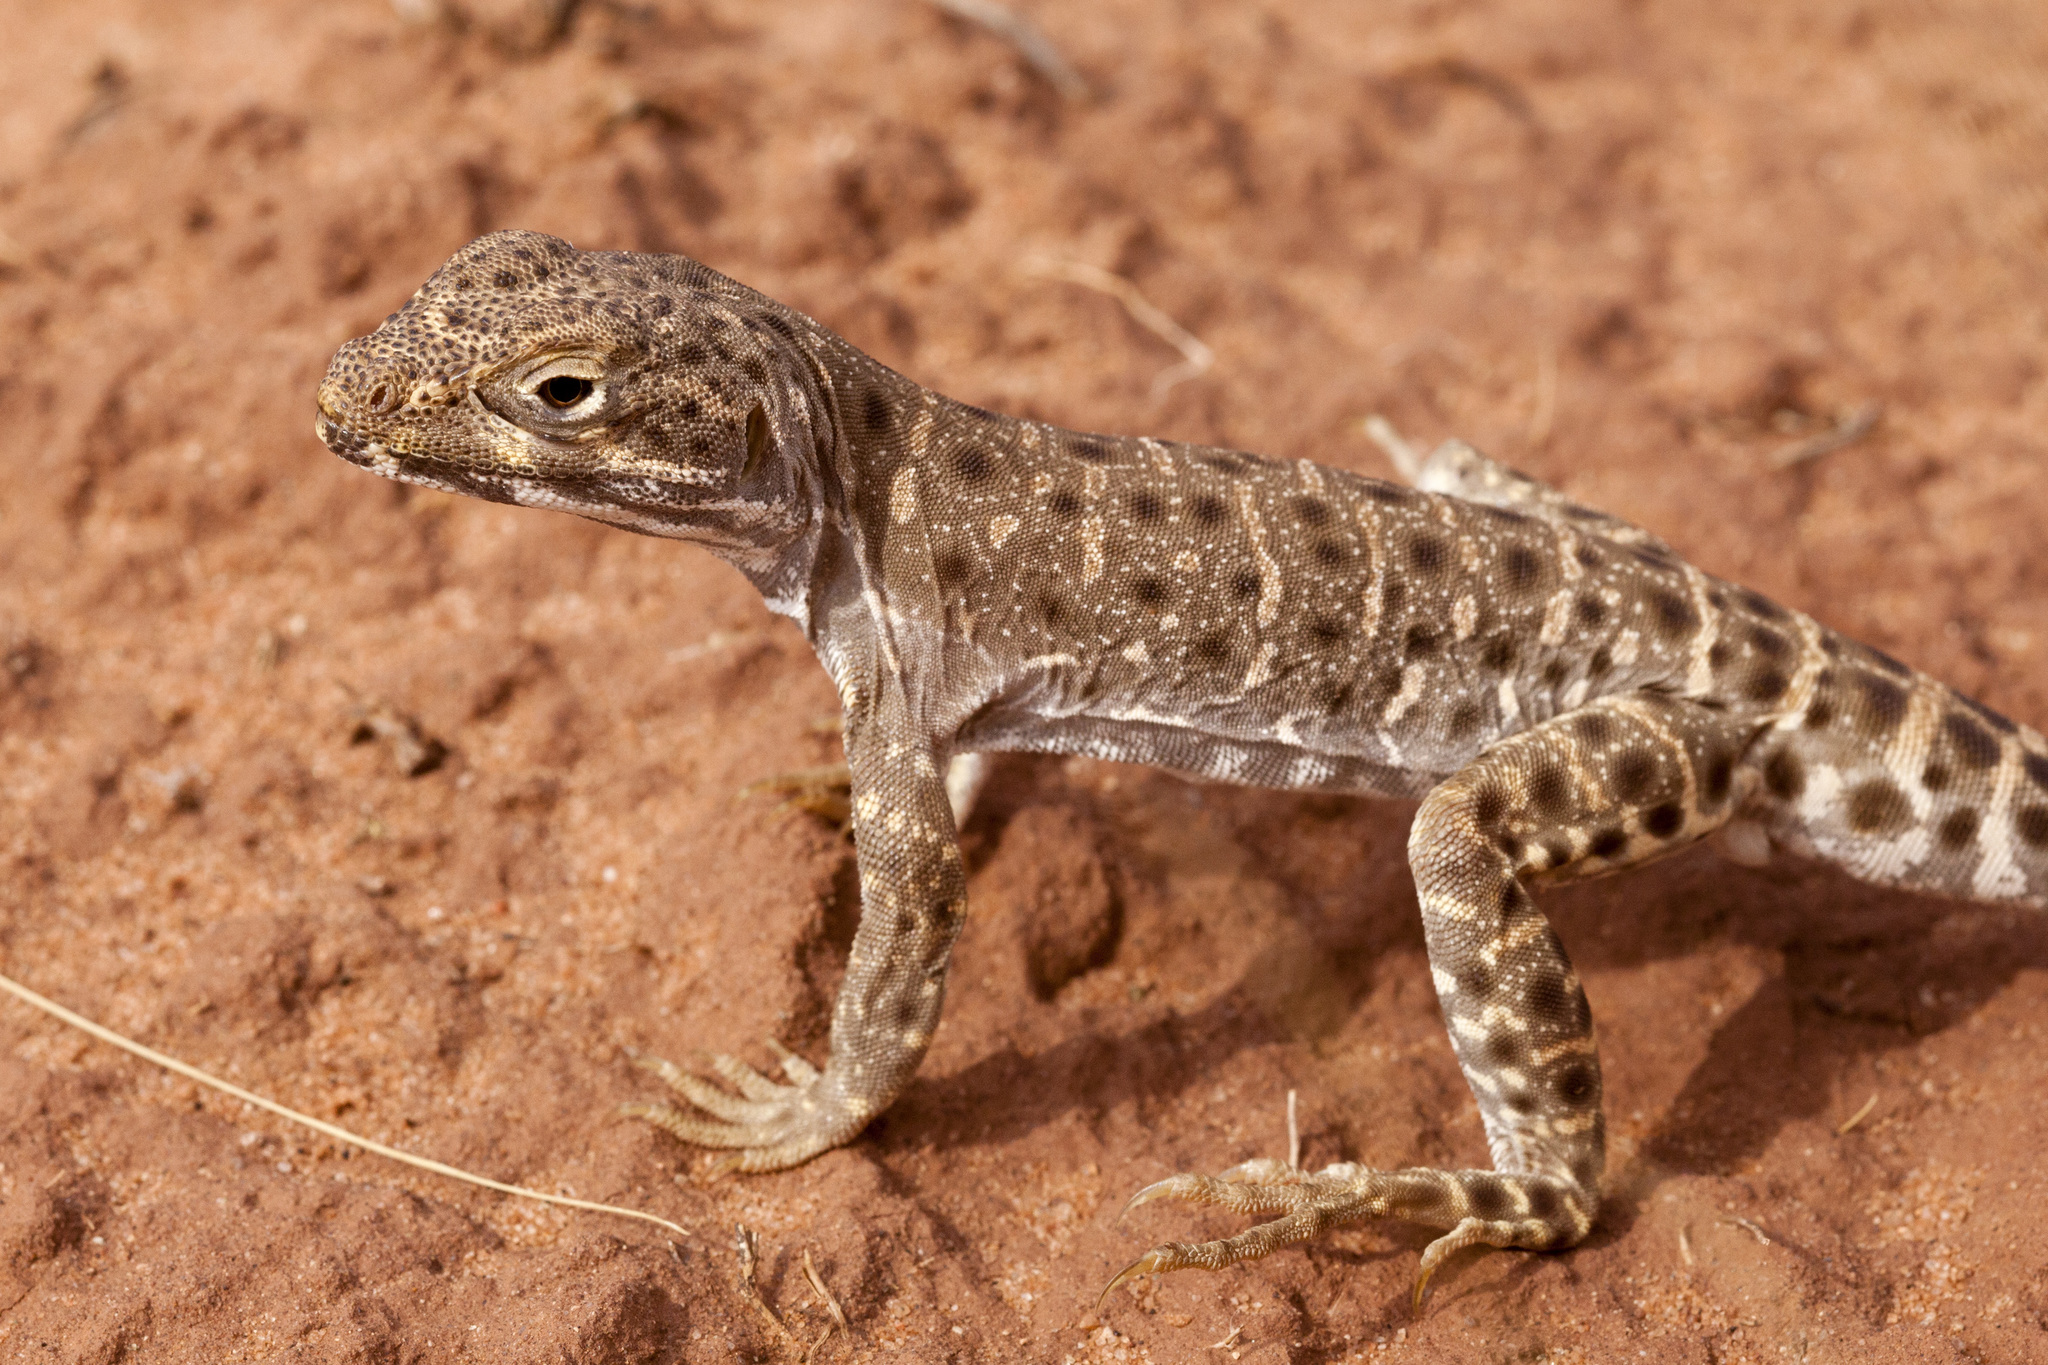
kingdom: Animalia
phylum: Chordata
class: Squamata
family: Crotaphytidae
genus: Gambelia
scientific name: Gambelia wislizenii
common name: Longnose leopard lizard
